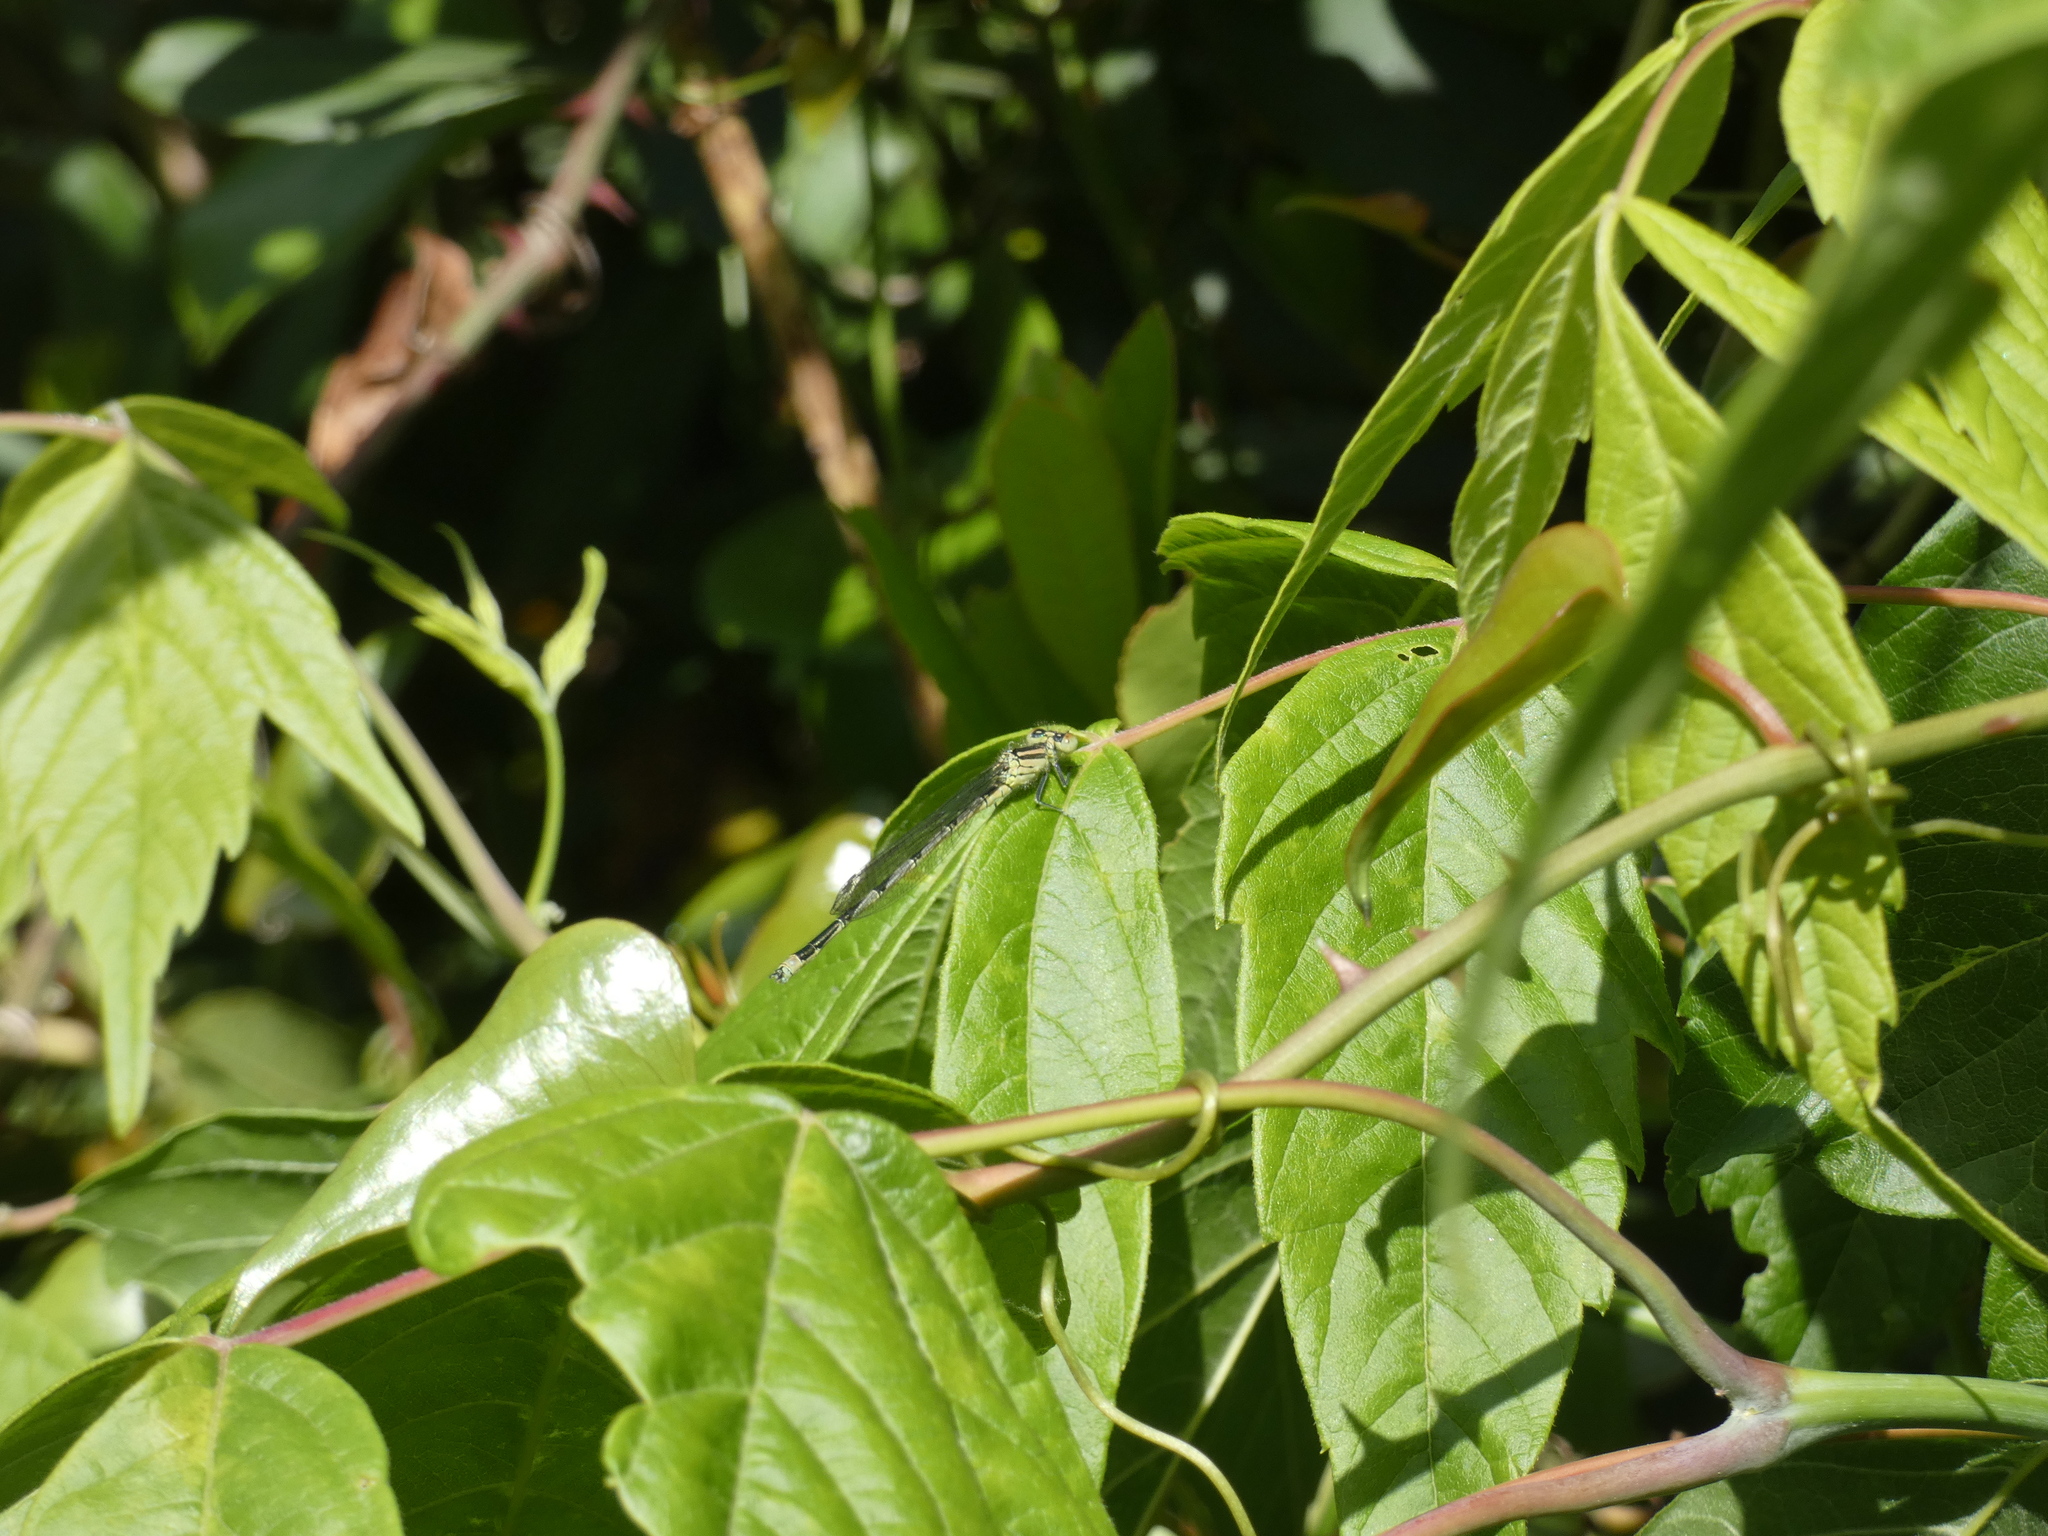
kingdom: Animalia
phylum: Arthropoda
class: Insecta
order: Odonata
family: Coenagrionidae
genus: Erythromma
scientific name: Erythromma lindenii
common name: Blue-eye
